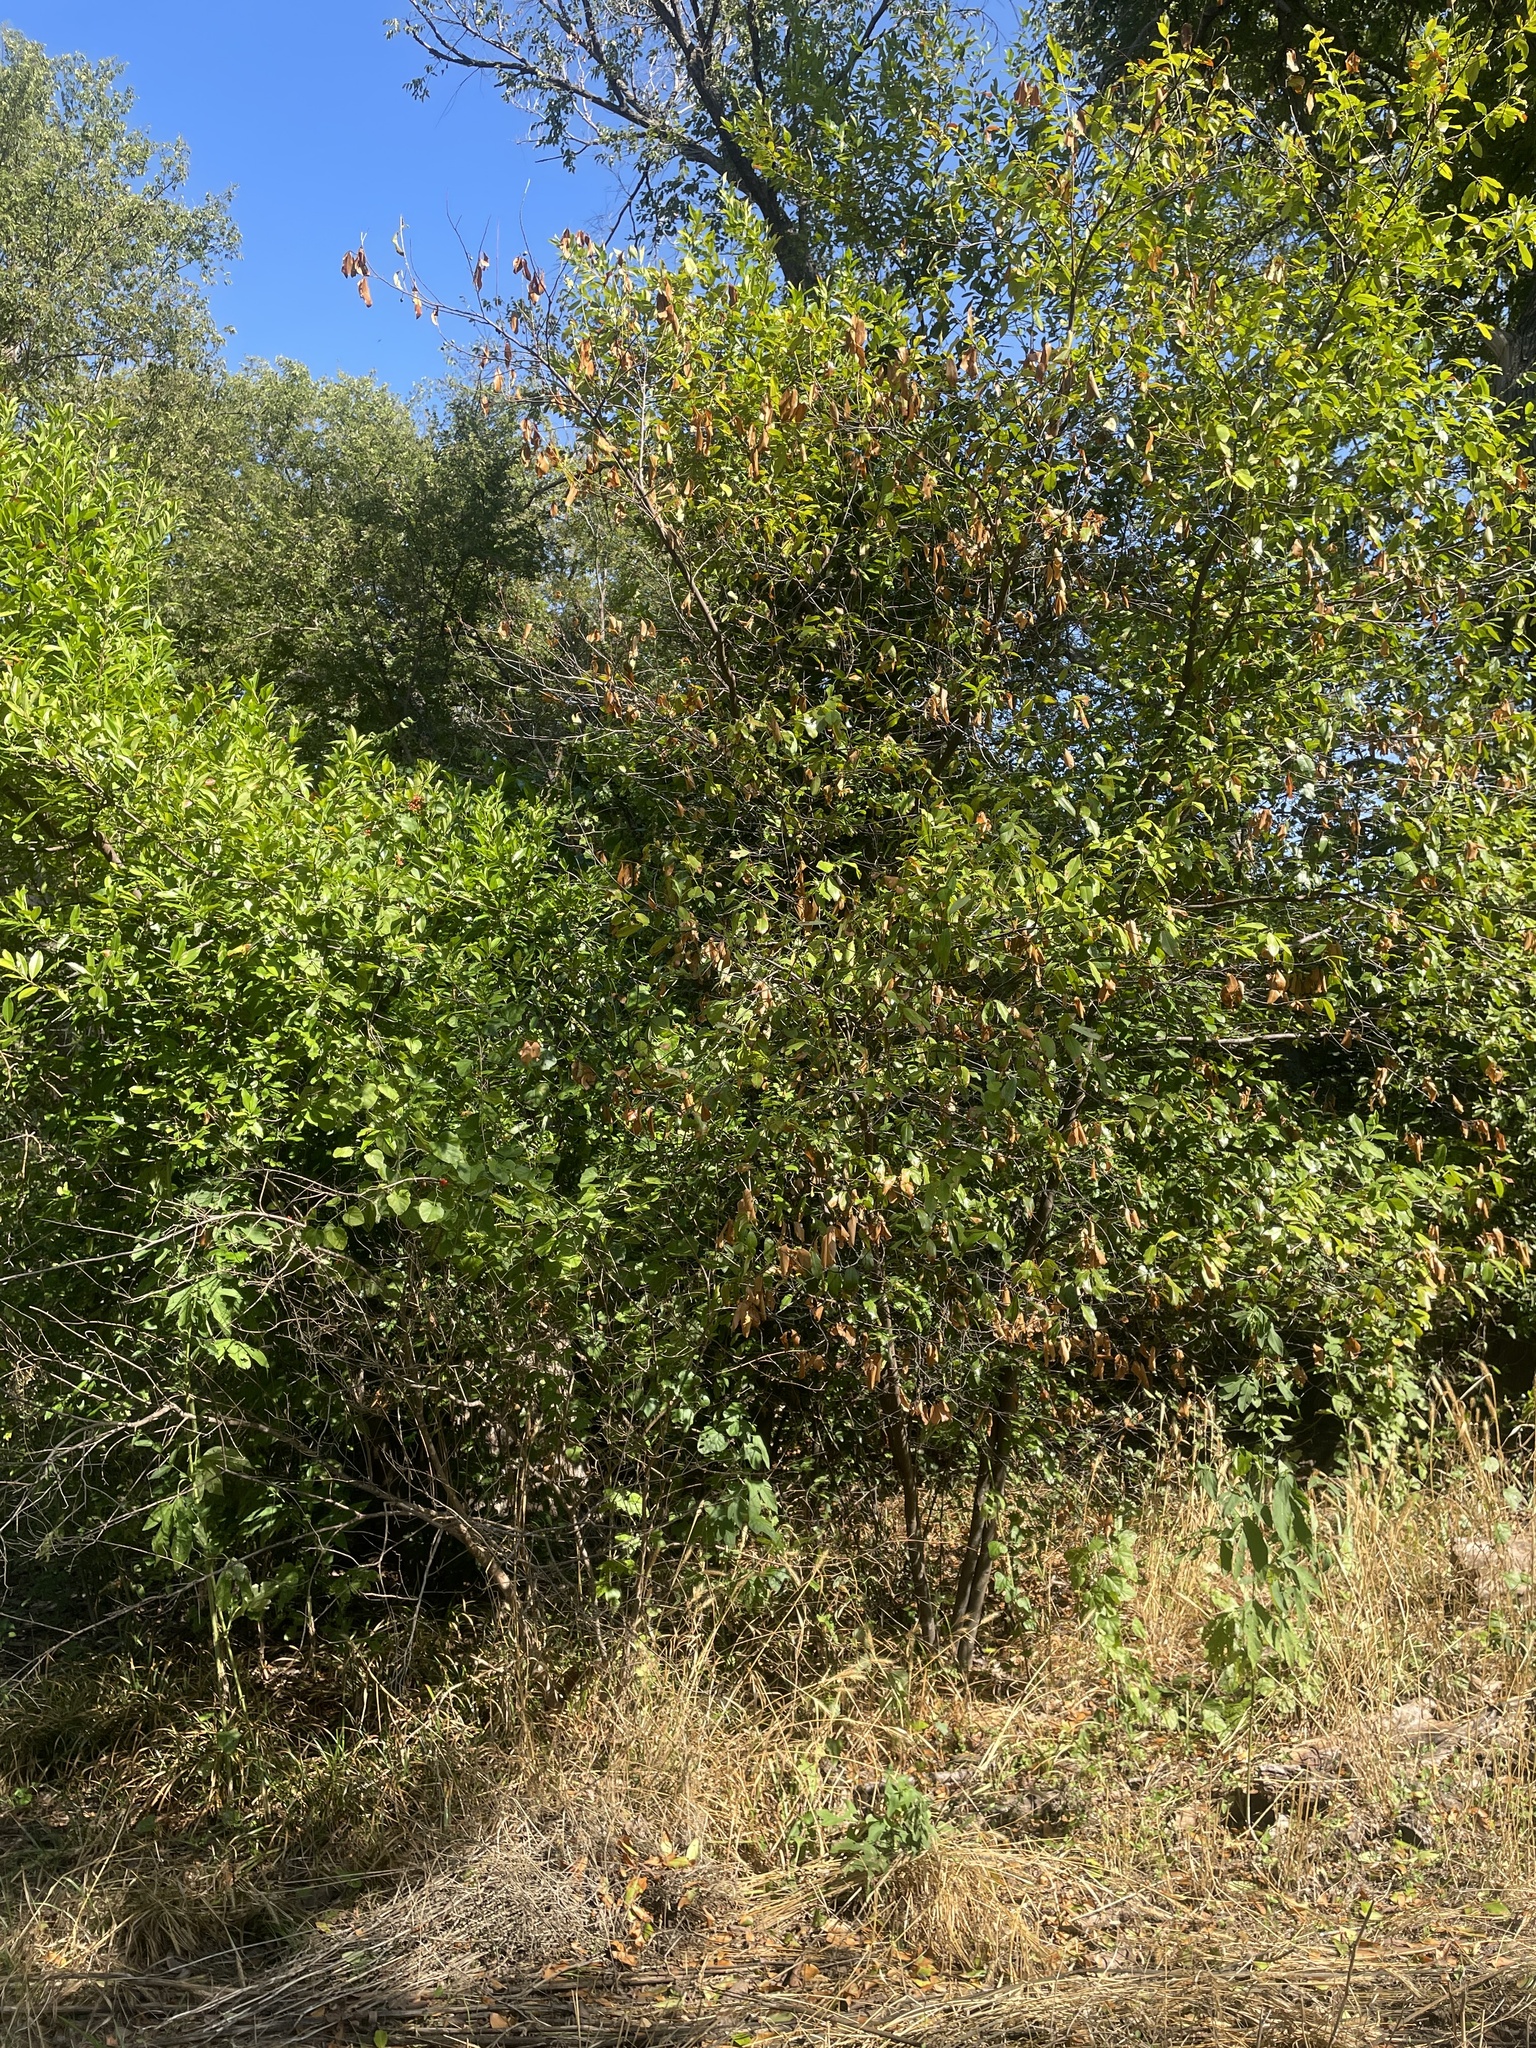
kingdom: Plantae
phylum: Tracheophyta
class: Magnoliopsida
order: Rosales
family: Rosaceae
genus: Prunus
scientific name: Prunus caroliniana
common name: Carolina laurel cherry
